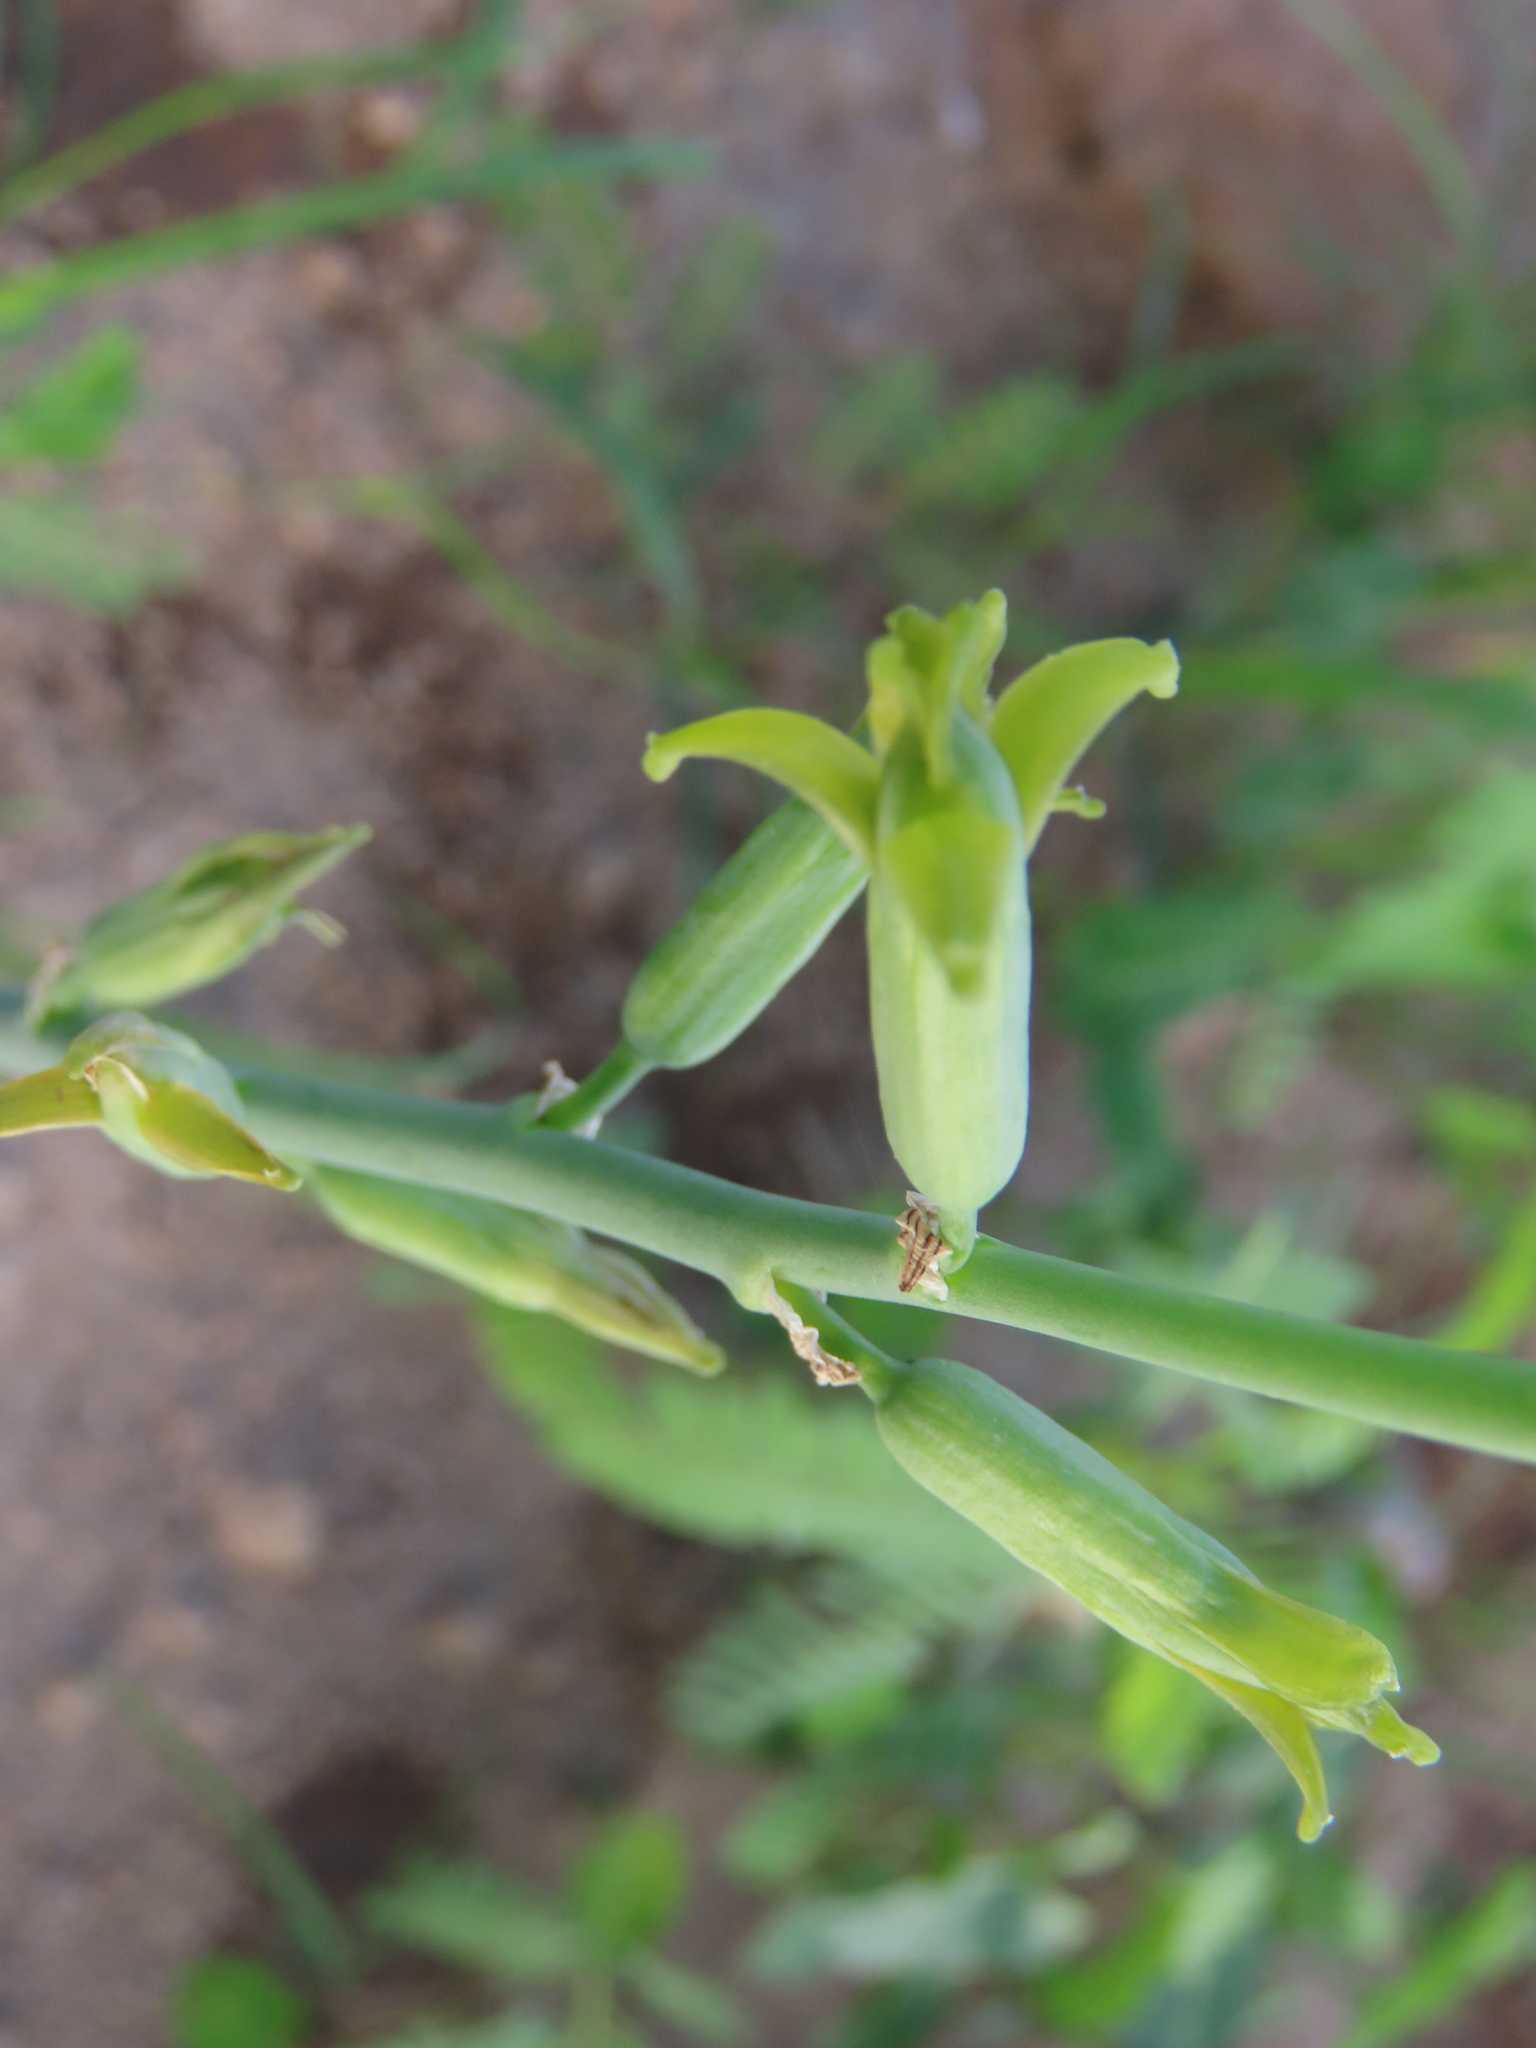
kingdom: Plantae
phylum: Tracheophyta
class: Liliopsida
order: Asparagales
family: Asparagaceae
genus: Dipcadi
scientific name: Dipcadi bakerianum
